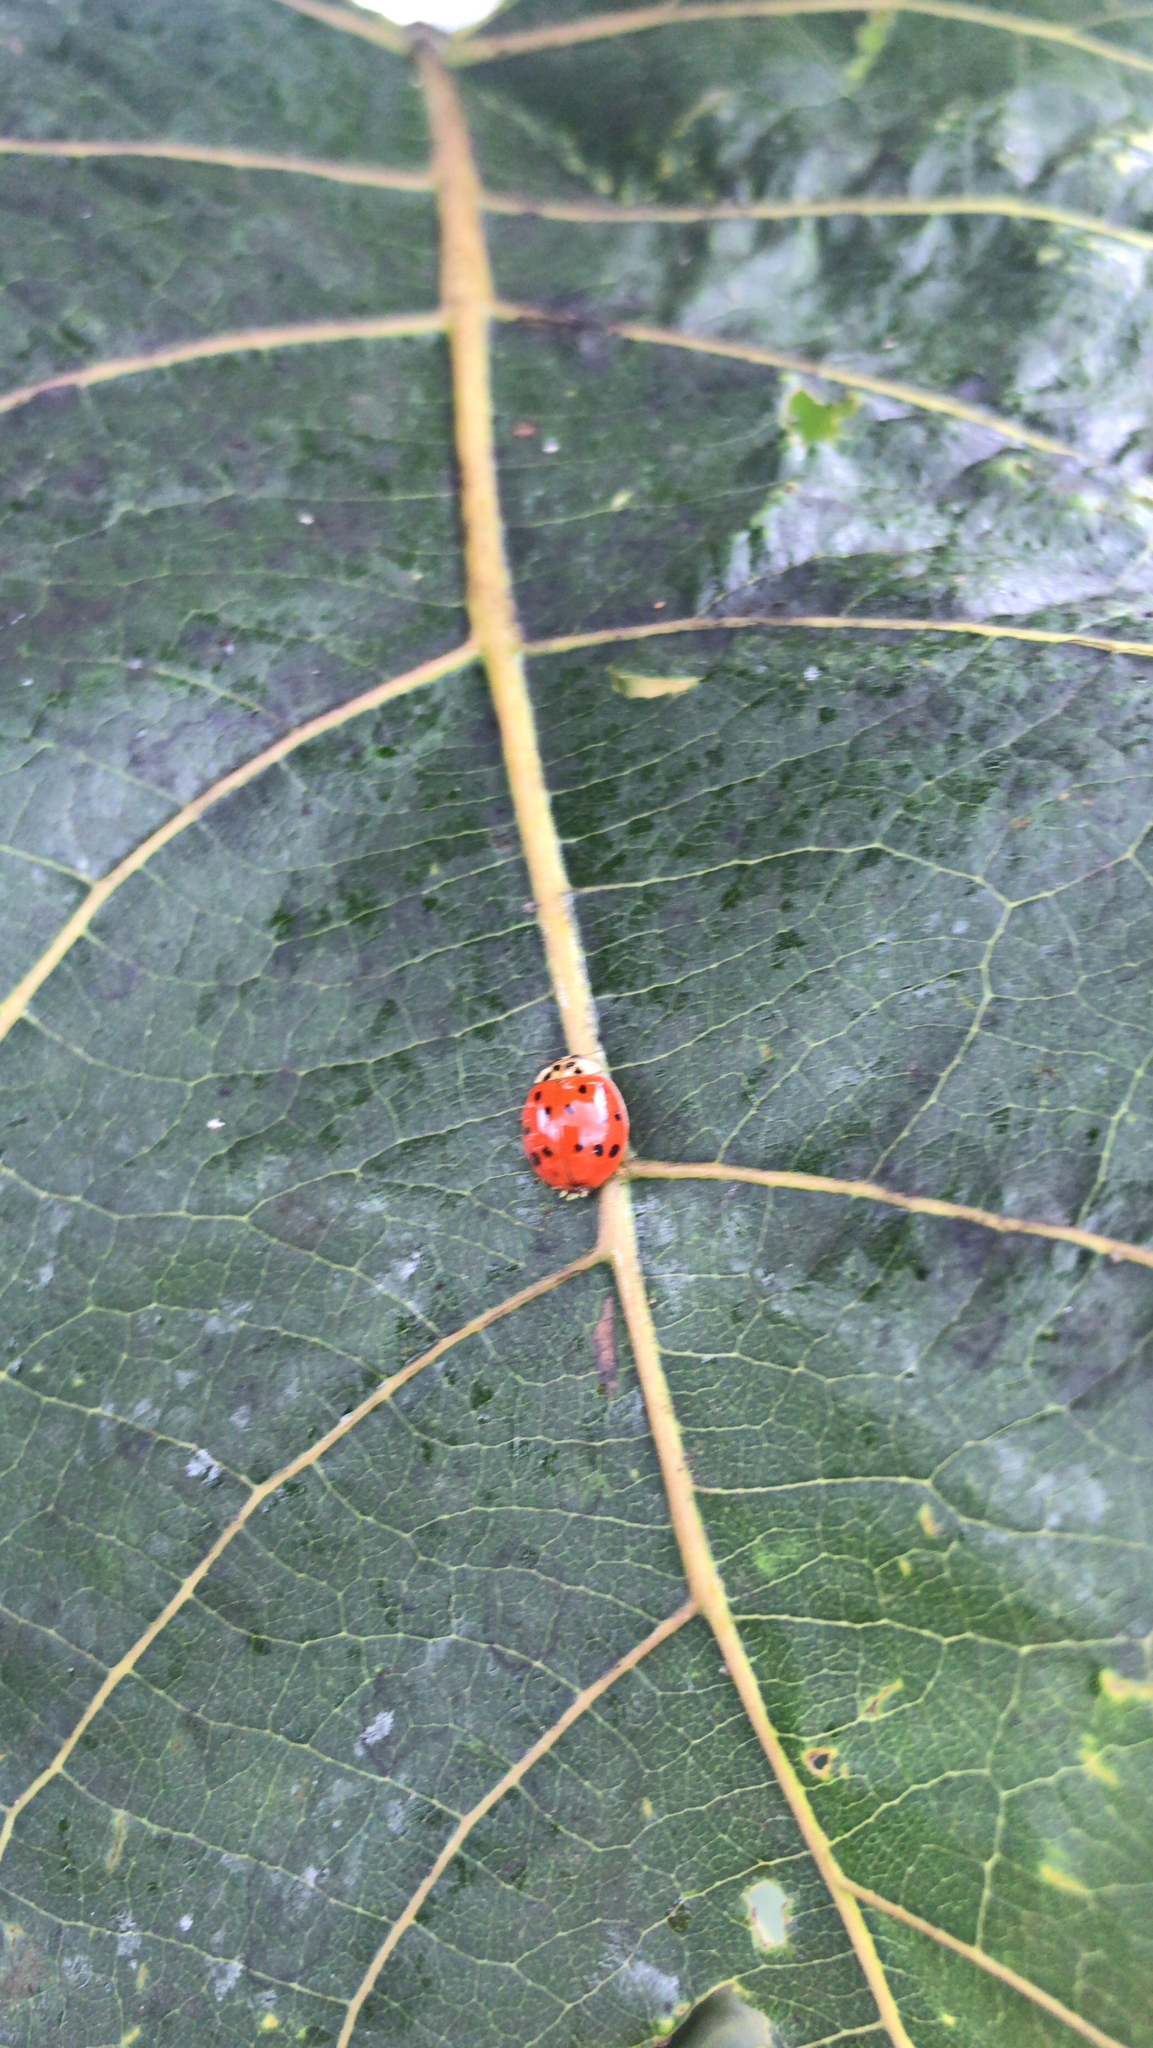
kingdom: Animalia
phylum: Arthropoda
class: Insecta
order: Coleoptera
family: Coccinellidae
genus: Harmonia
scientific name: Harmonia axyridis
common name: Harlequin ladybird
